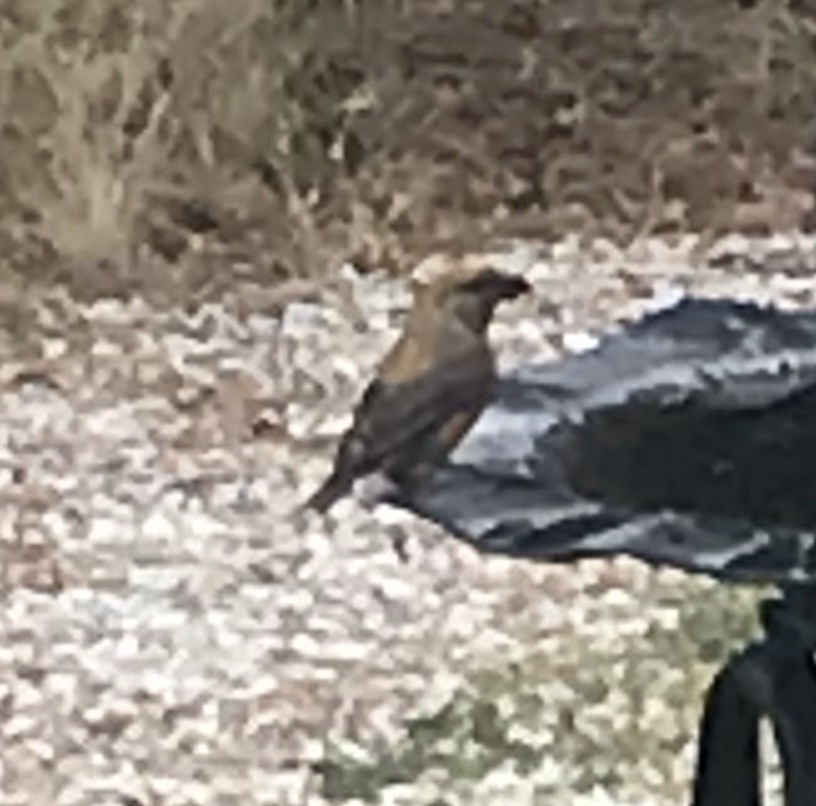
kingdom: Animalia
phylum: Chordata
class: Aves
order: Passeriformes
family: Fringillidae
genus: Loxia
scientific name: Loxia curvirostra
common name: Red crossbill
